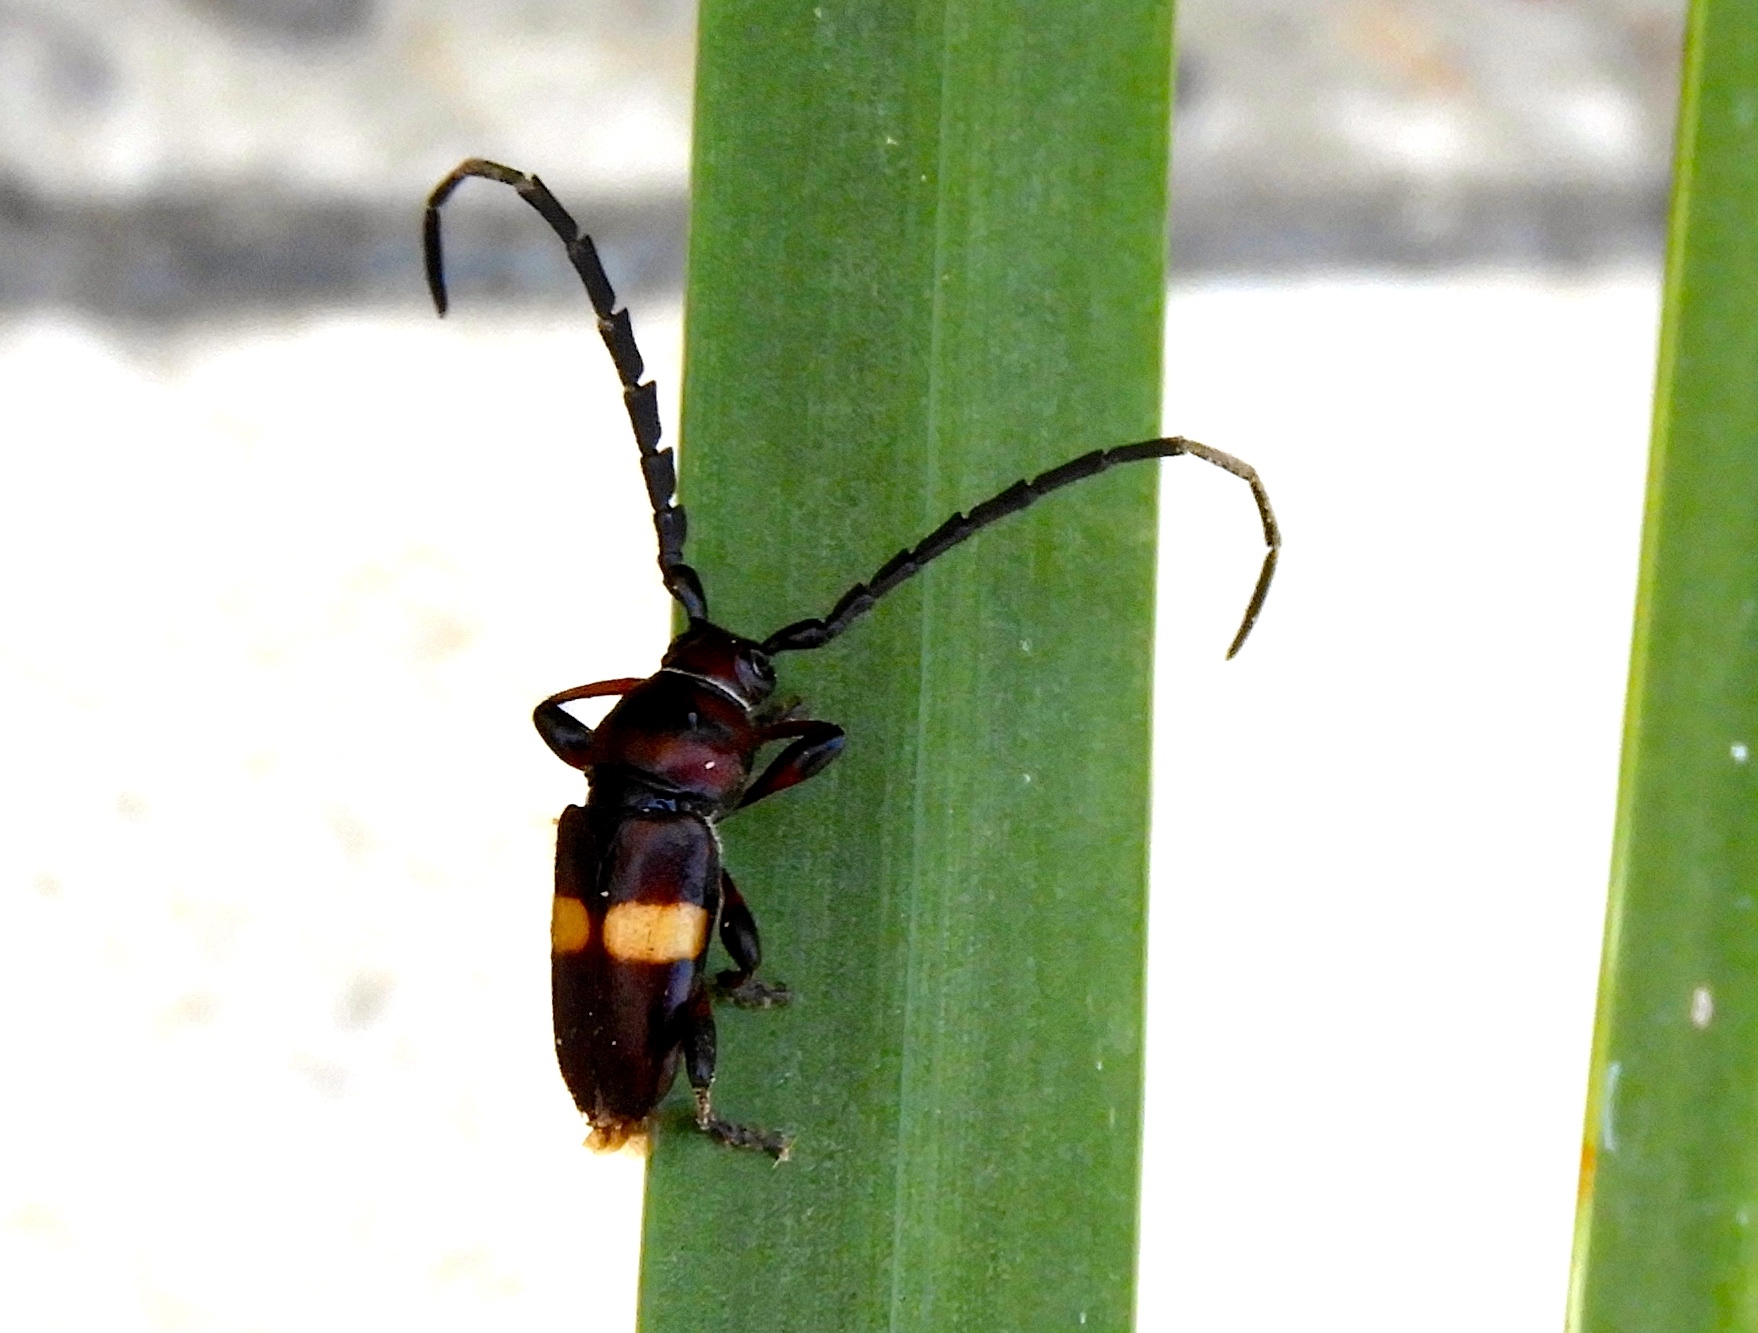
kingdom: Animalia
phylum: Arthropoda
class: Insecta
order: Coleoptera
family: Cerambycidae
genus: Lissonotus
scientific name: Lissonotus flavocinctus
